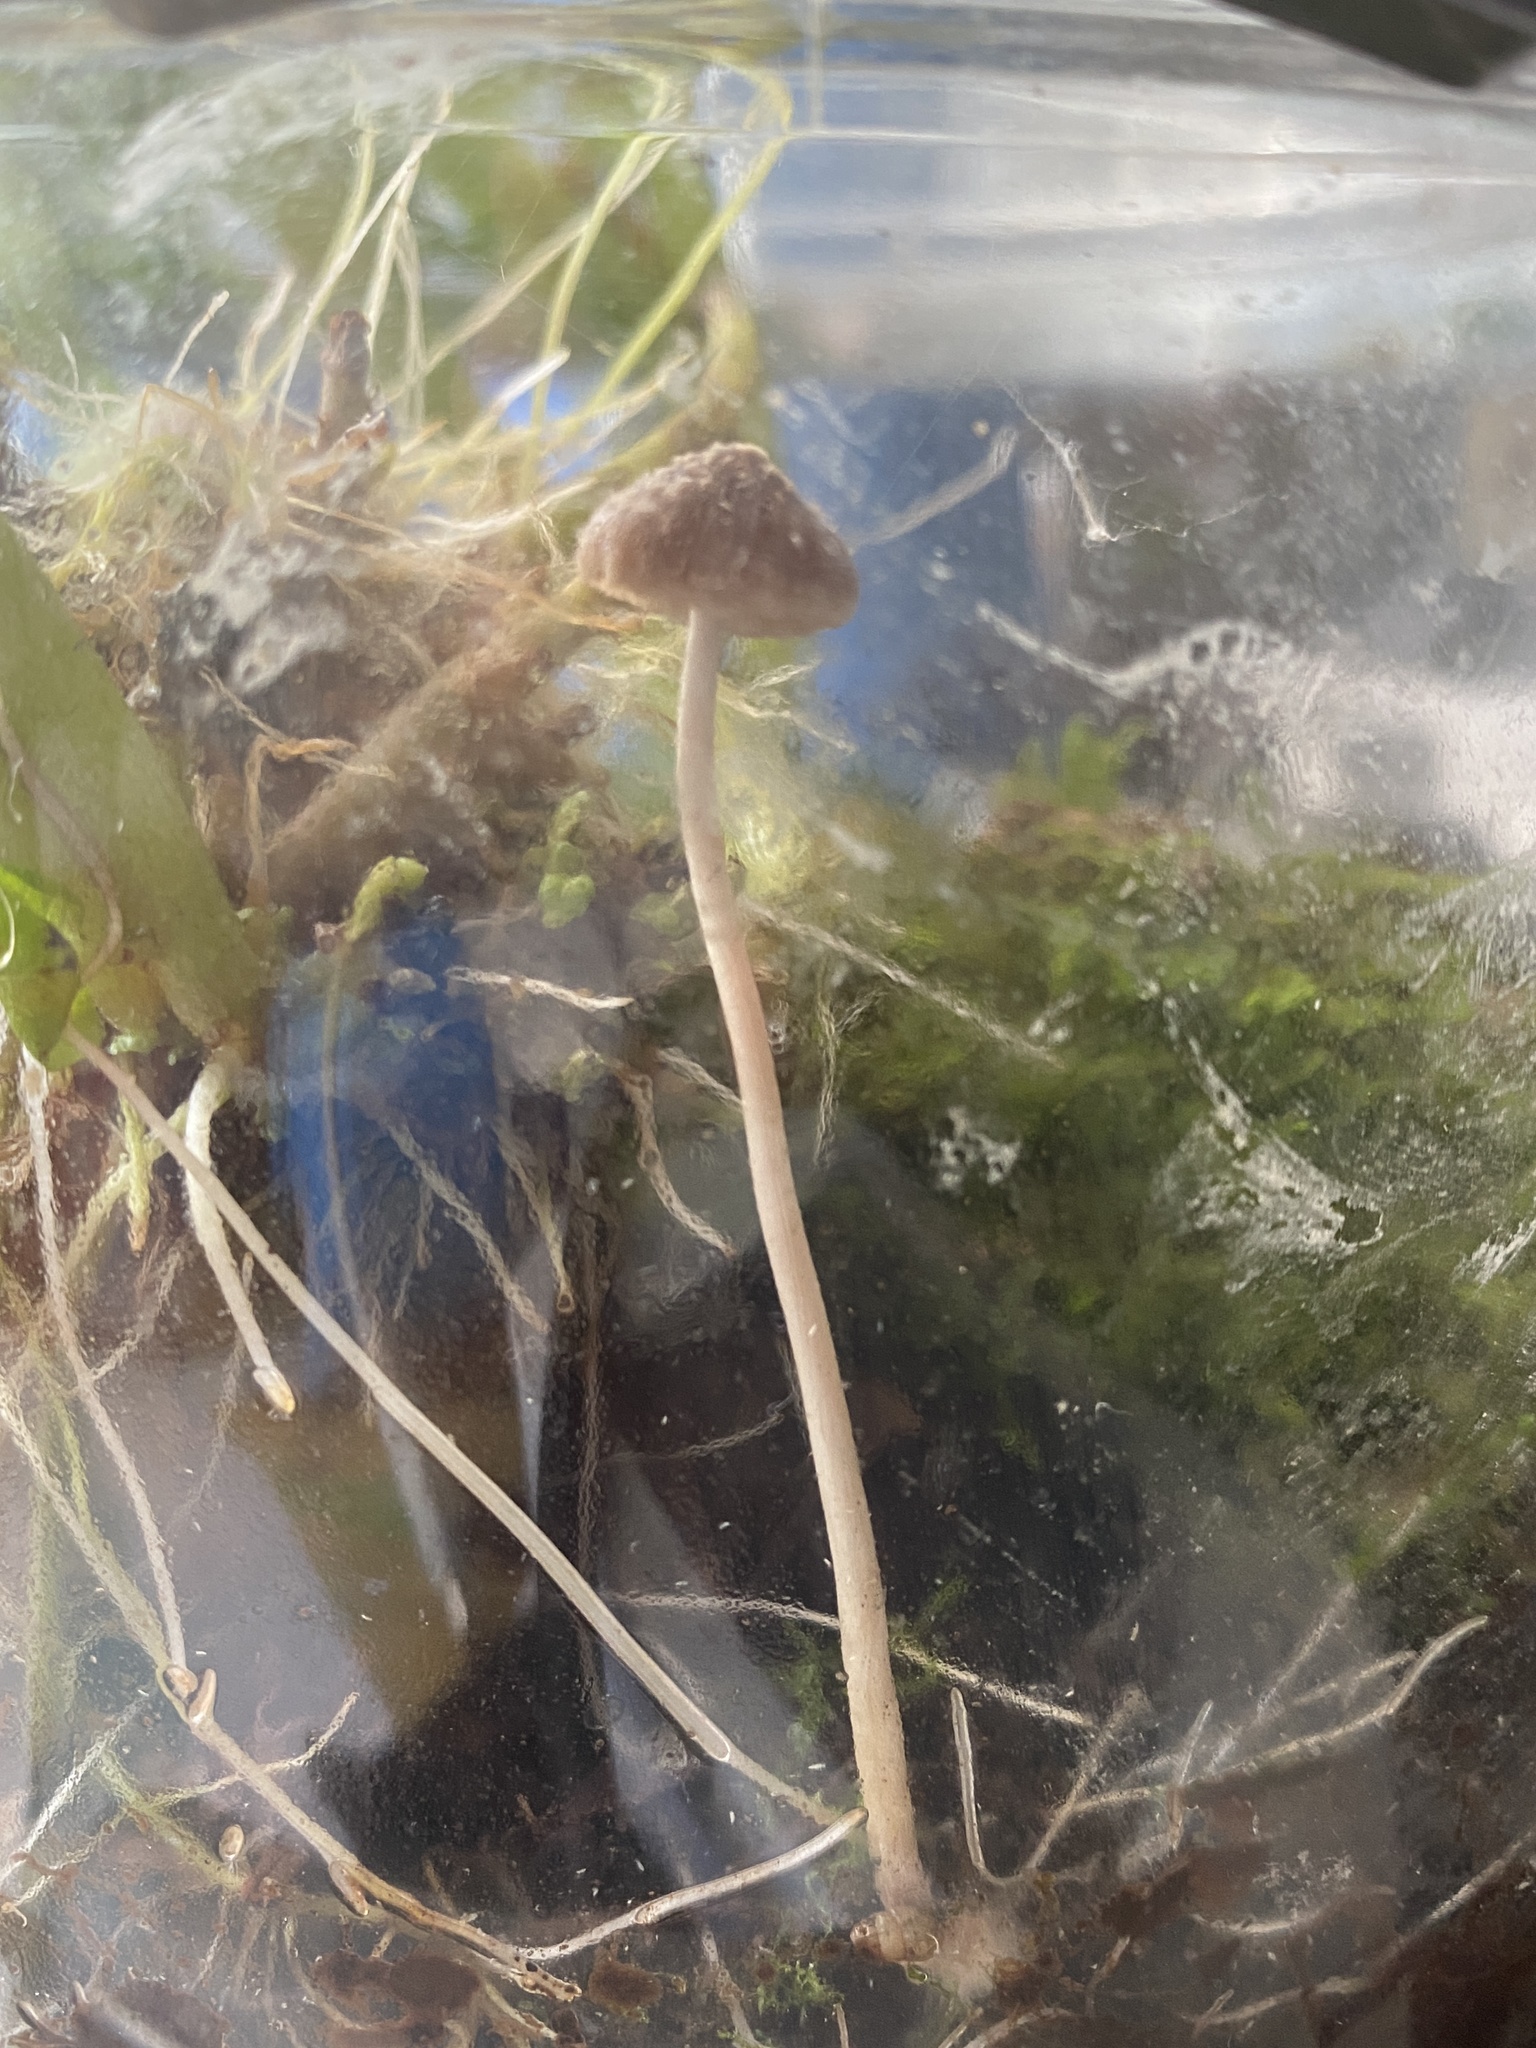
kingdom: Fungi
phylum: Basidiomycota
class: Agaricomycetes
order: Agaricales
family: Psathyrellaceae
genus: Psathyrella
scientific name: Psathyrella hirta
